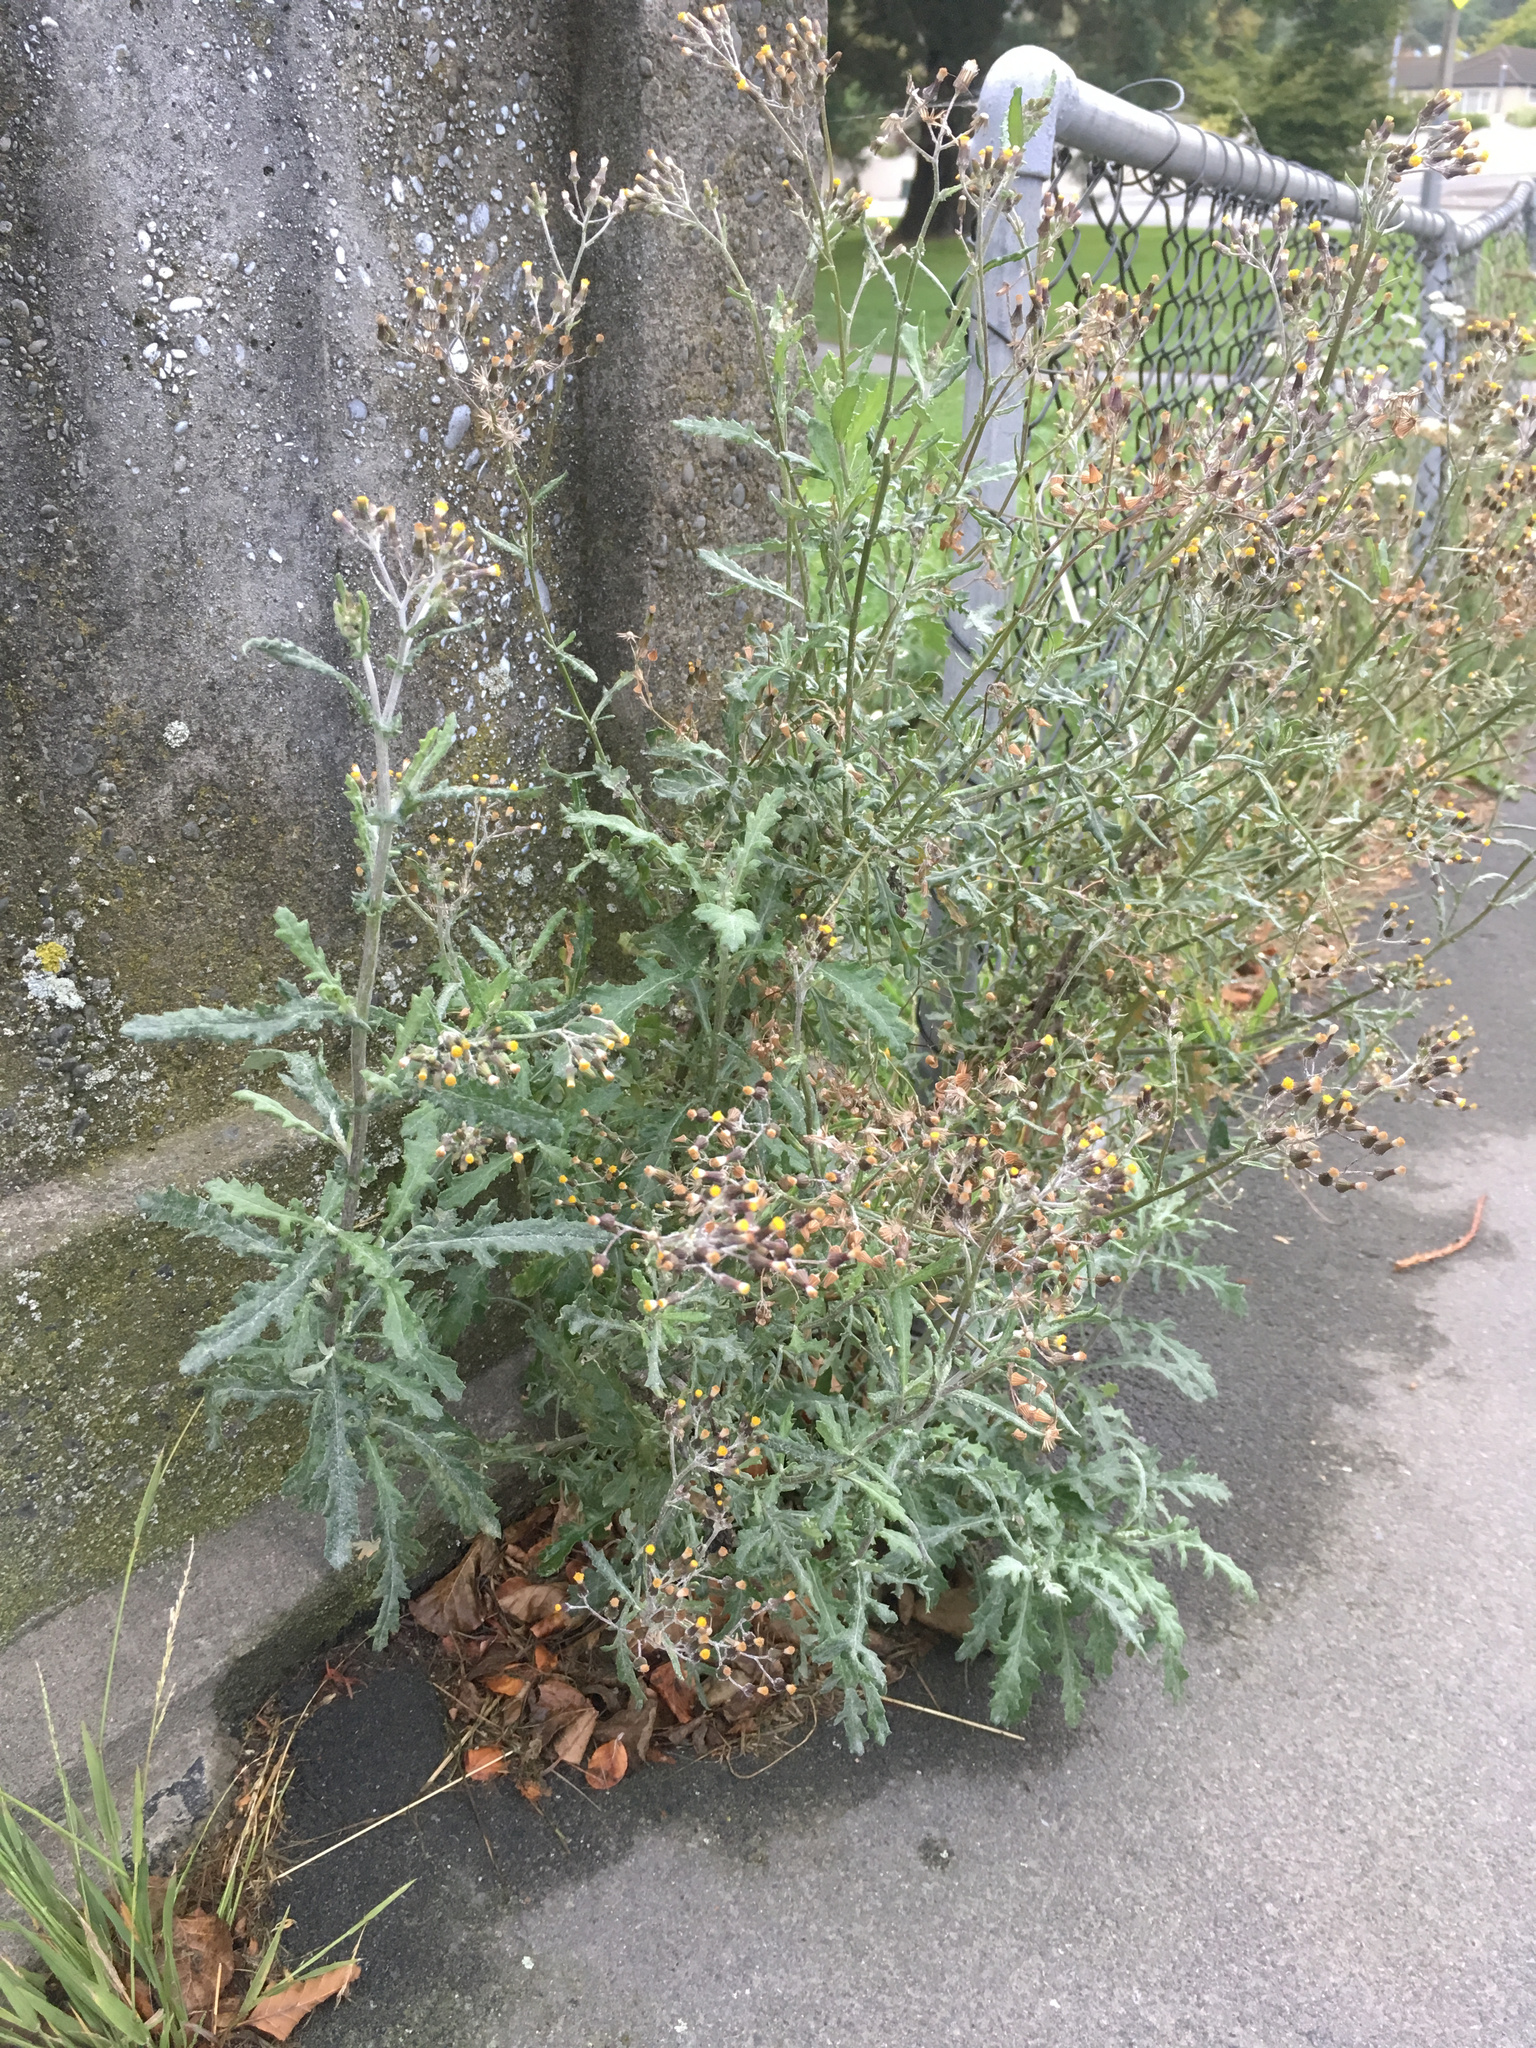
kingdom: Plantae
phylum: Tracheophyta
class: Magnoliopsida
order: Asterales
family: Asteraceae
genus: Senecio
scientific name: Senecio glomeratus
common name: Cutleaf burnweed
